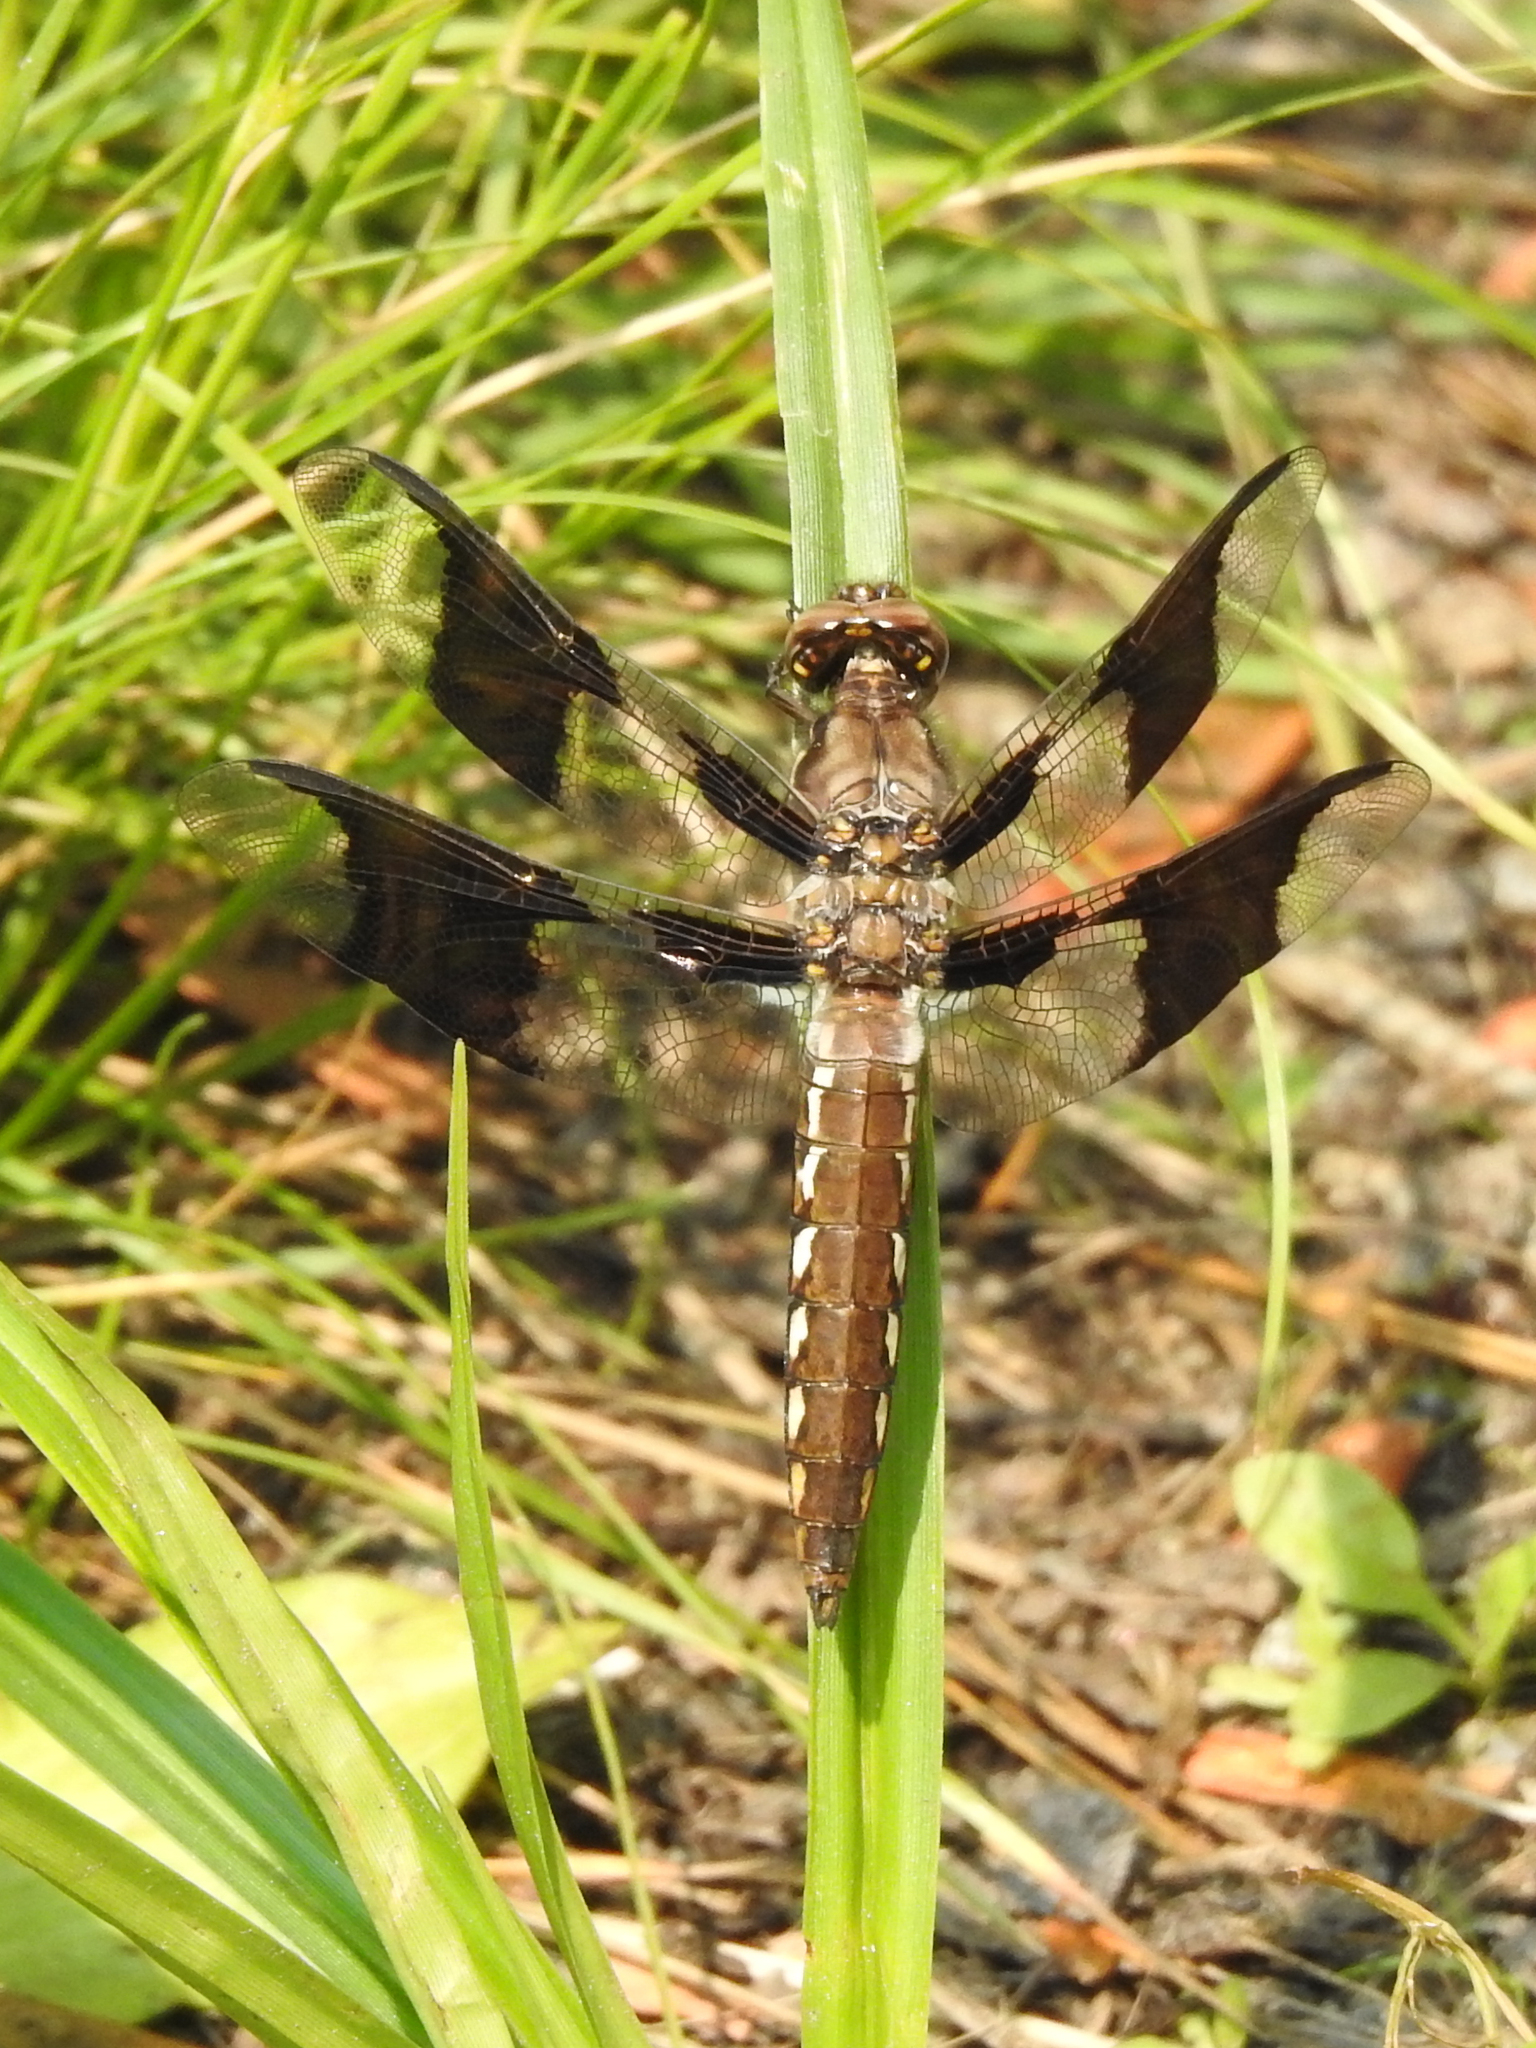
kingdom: Animalia
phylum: Arthropoda
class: Insecta
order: Odonata
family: Libellulidae
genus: Plathemis
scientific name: Plathemis lydia
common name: Common whitetail
